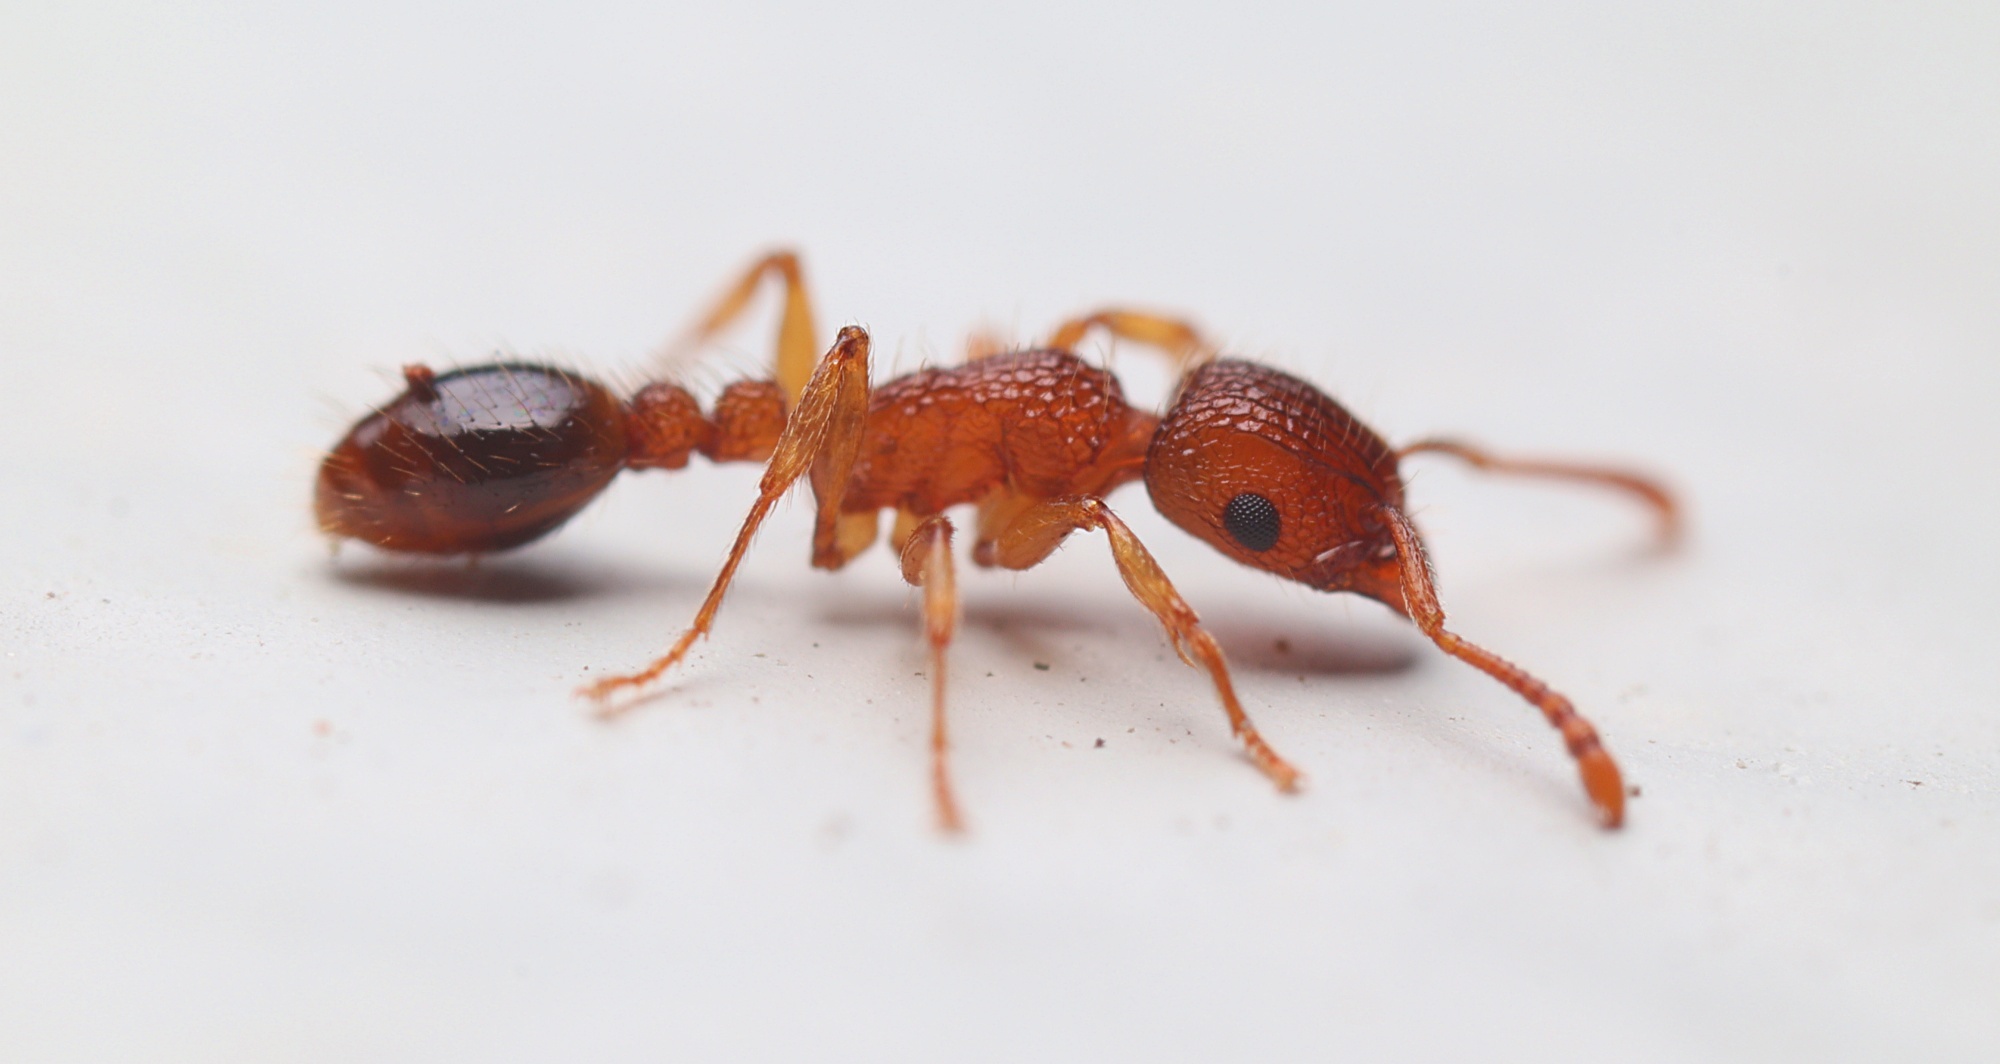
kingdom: Animalia
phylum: Arthropoda
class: Insecta
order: Hymenoptera
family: Formicidae
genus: Tetramorium
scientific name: Tetramorium bicarinatum
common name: Guinea ant
